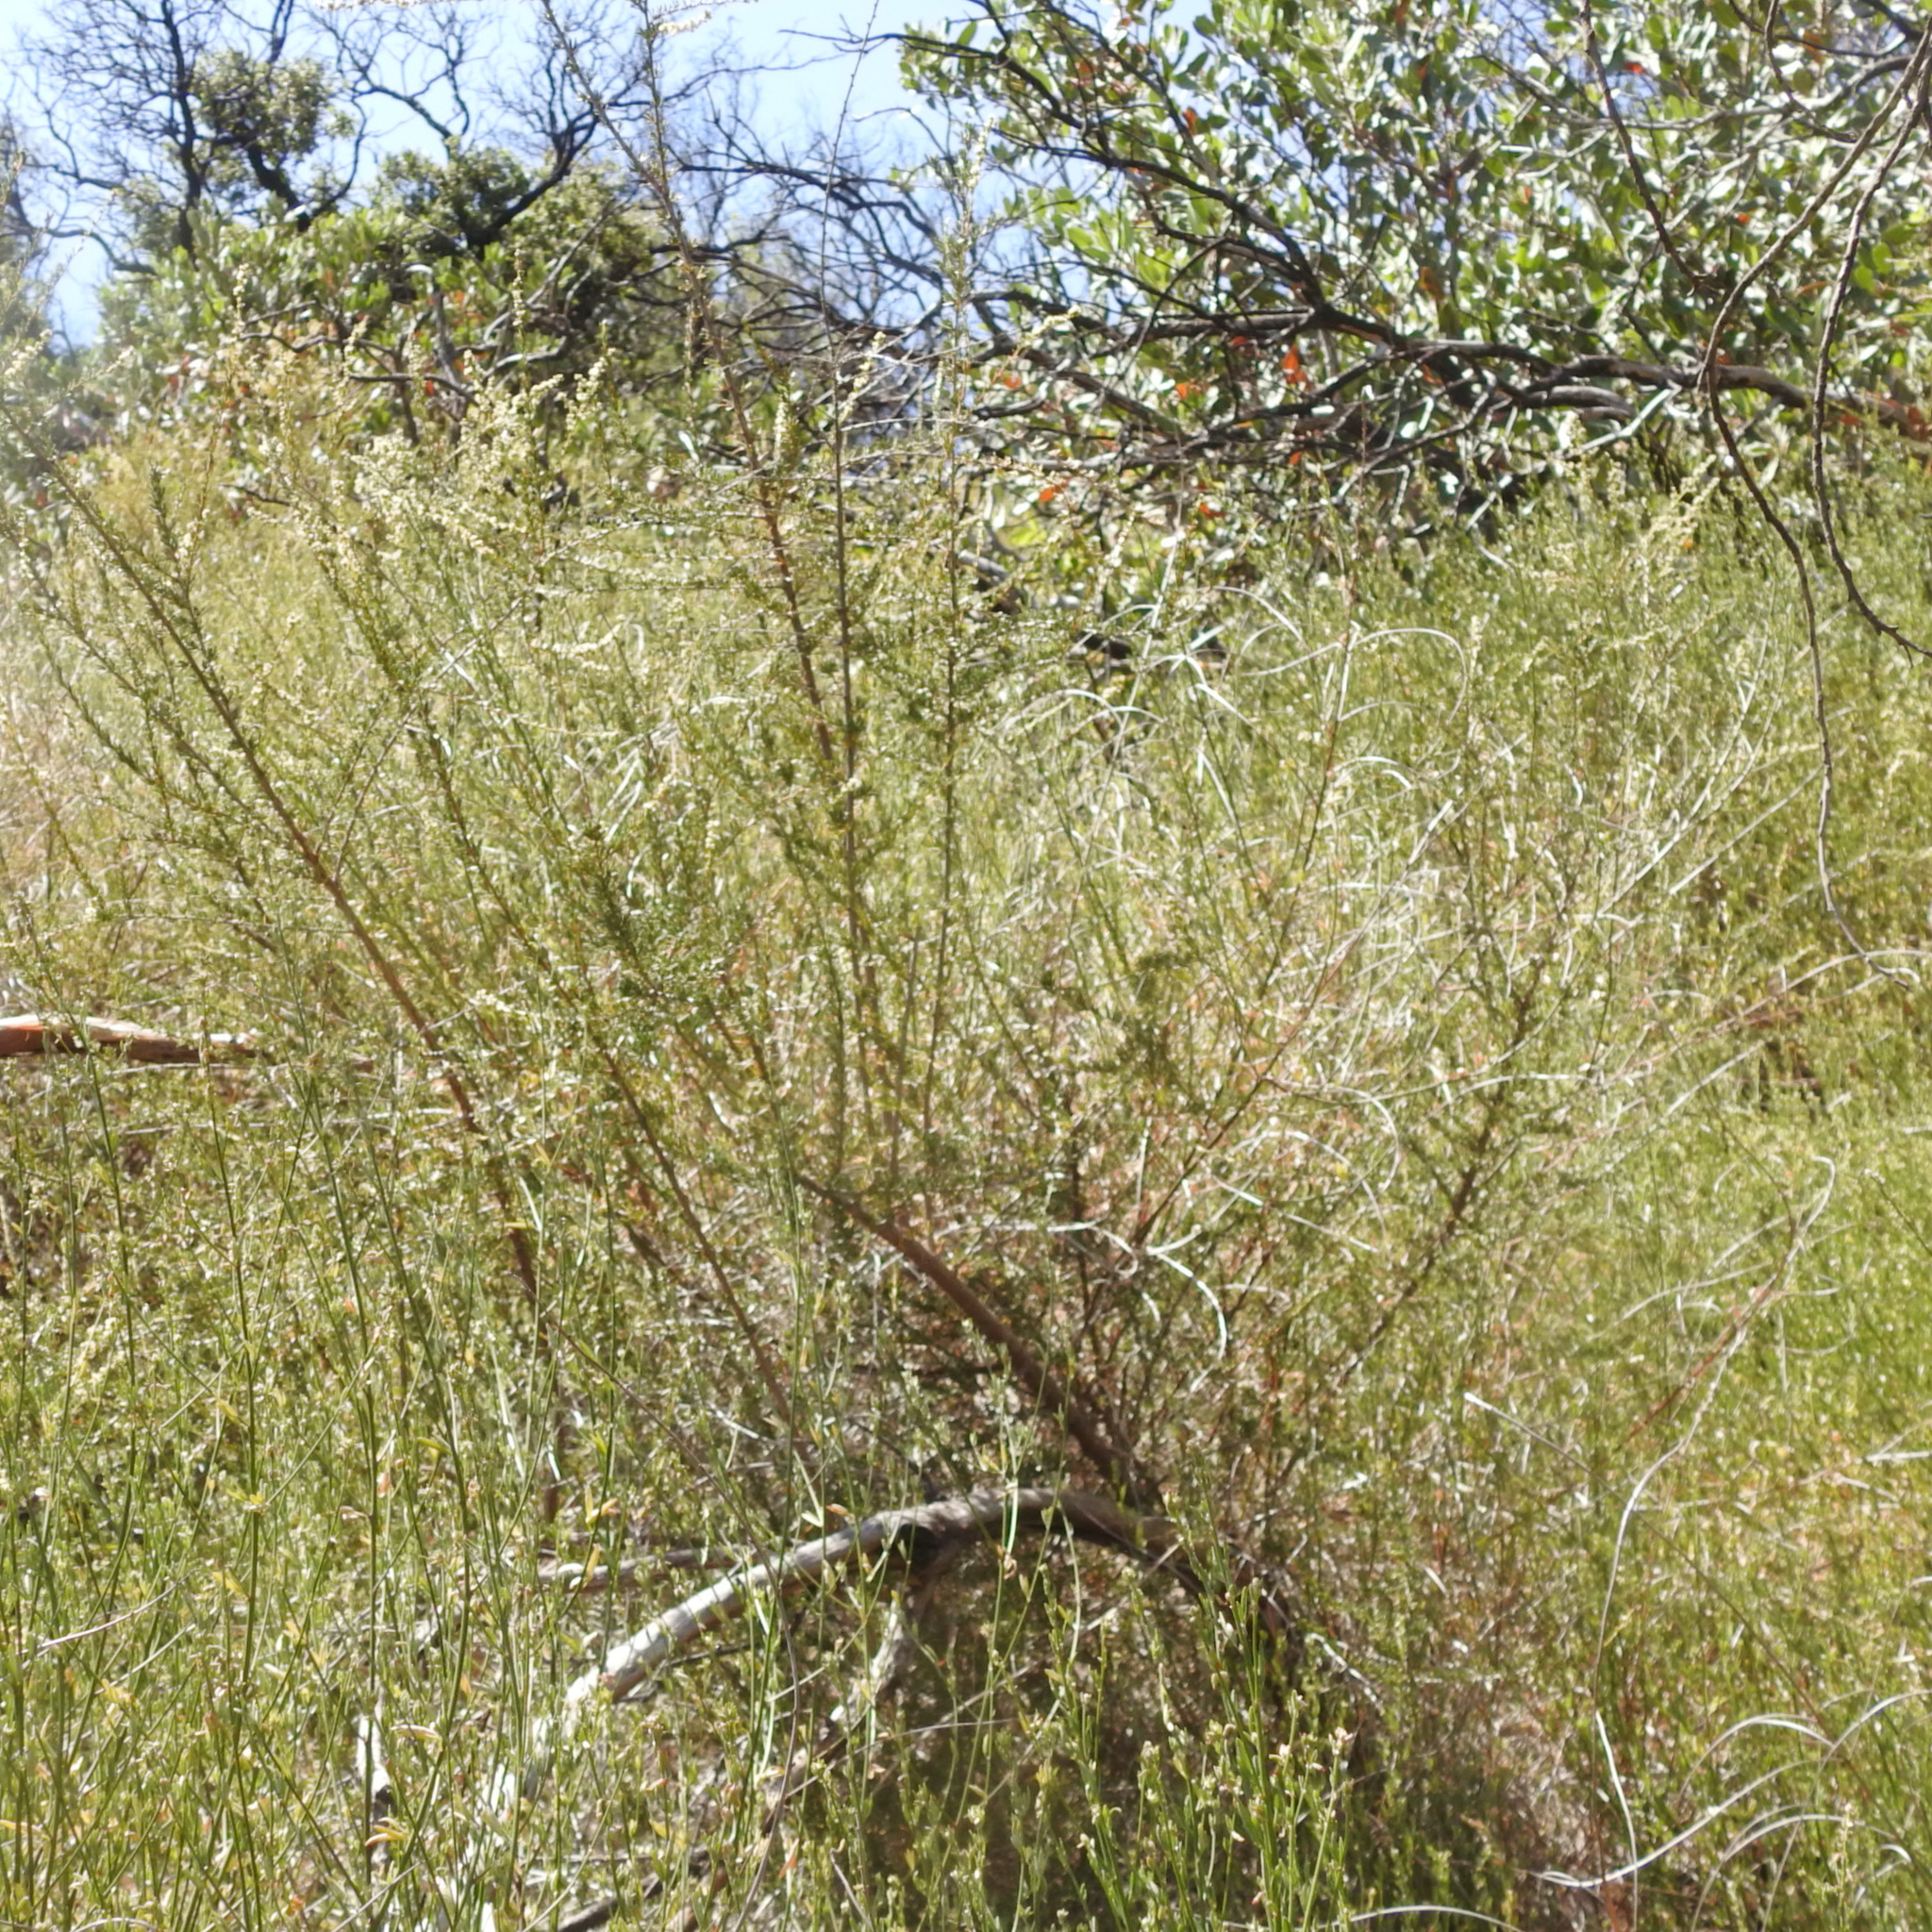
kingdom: Plantae
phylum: Tracheophyta
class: Magnoliopsida
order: Rosales
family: Rosaceae
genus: Adenostoma
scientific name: Adenostoma fasciculatum
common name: Chamise
